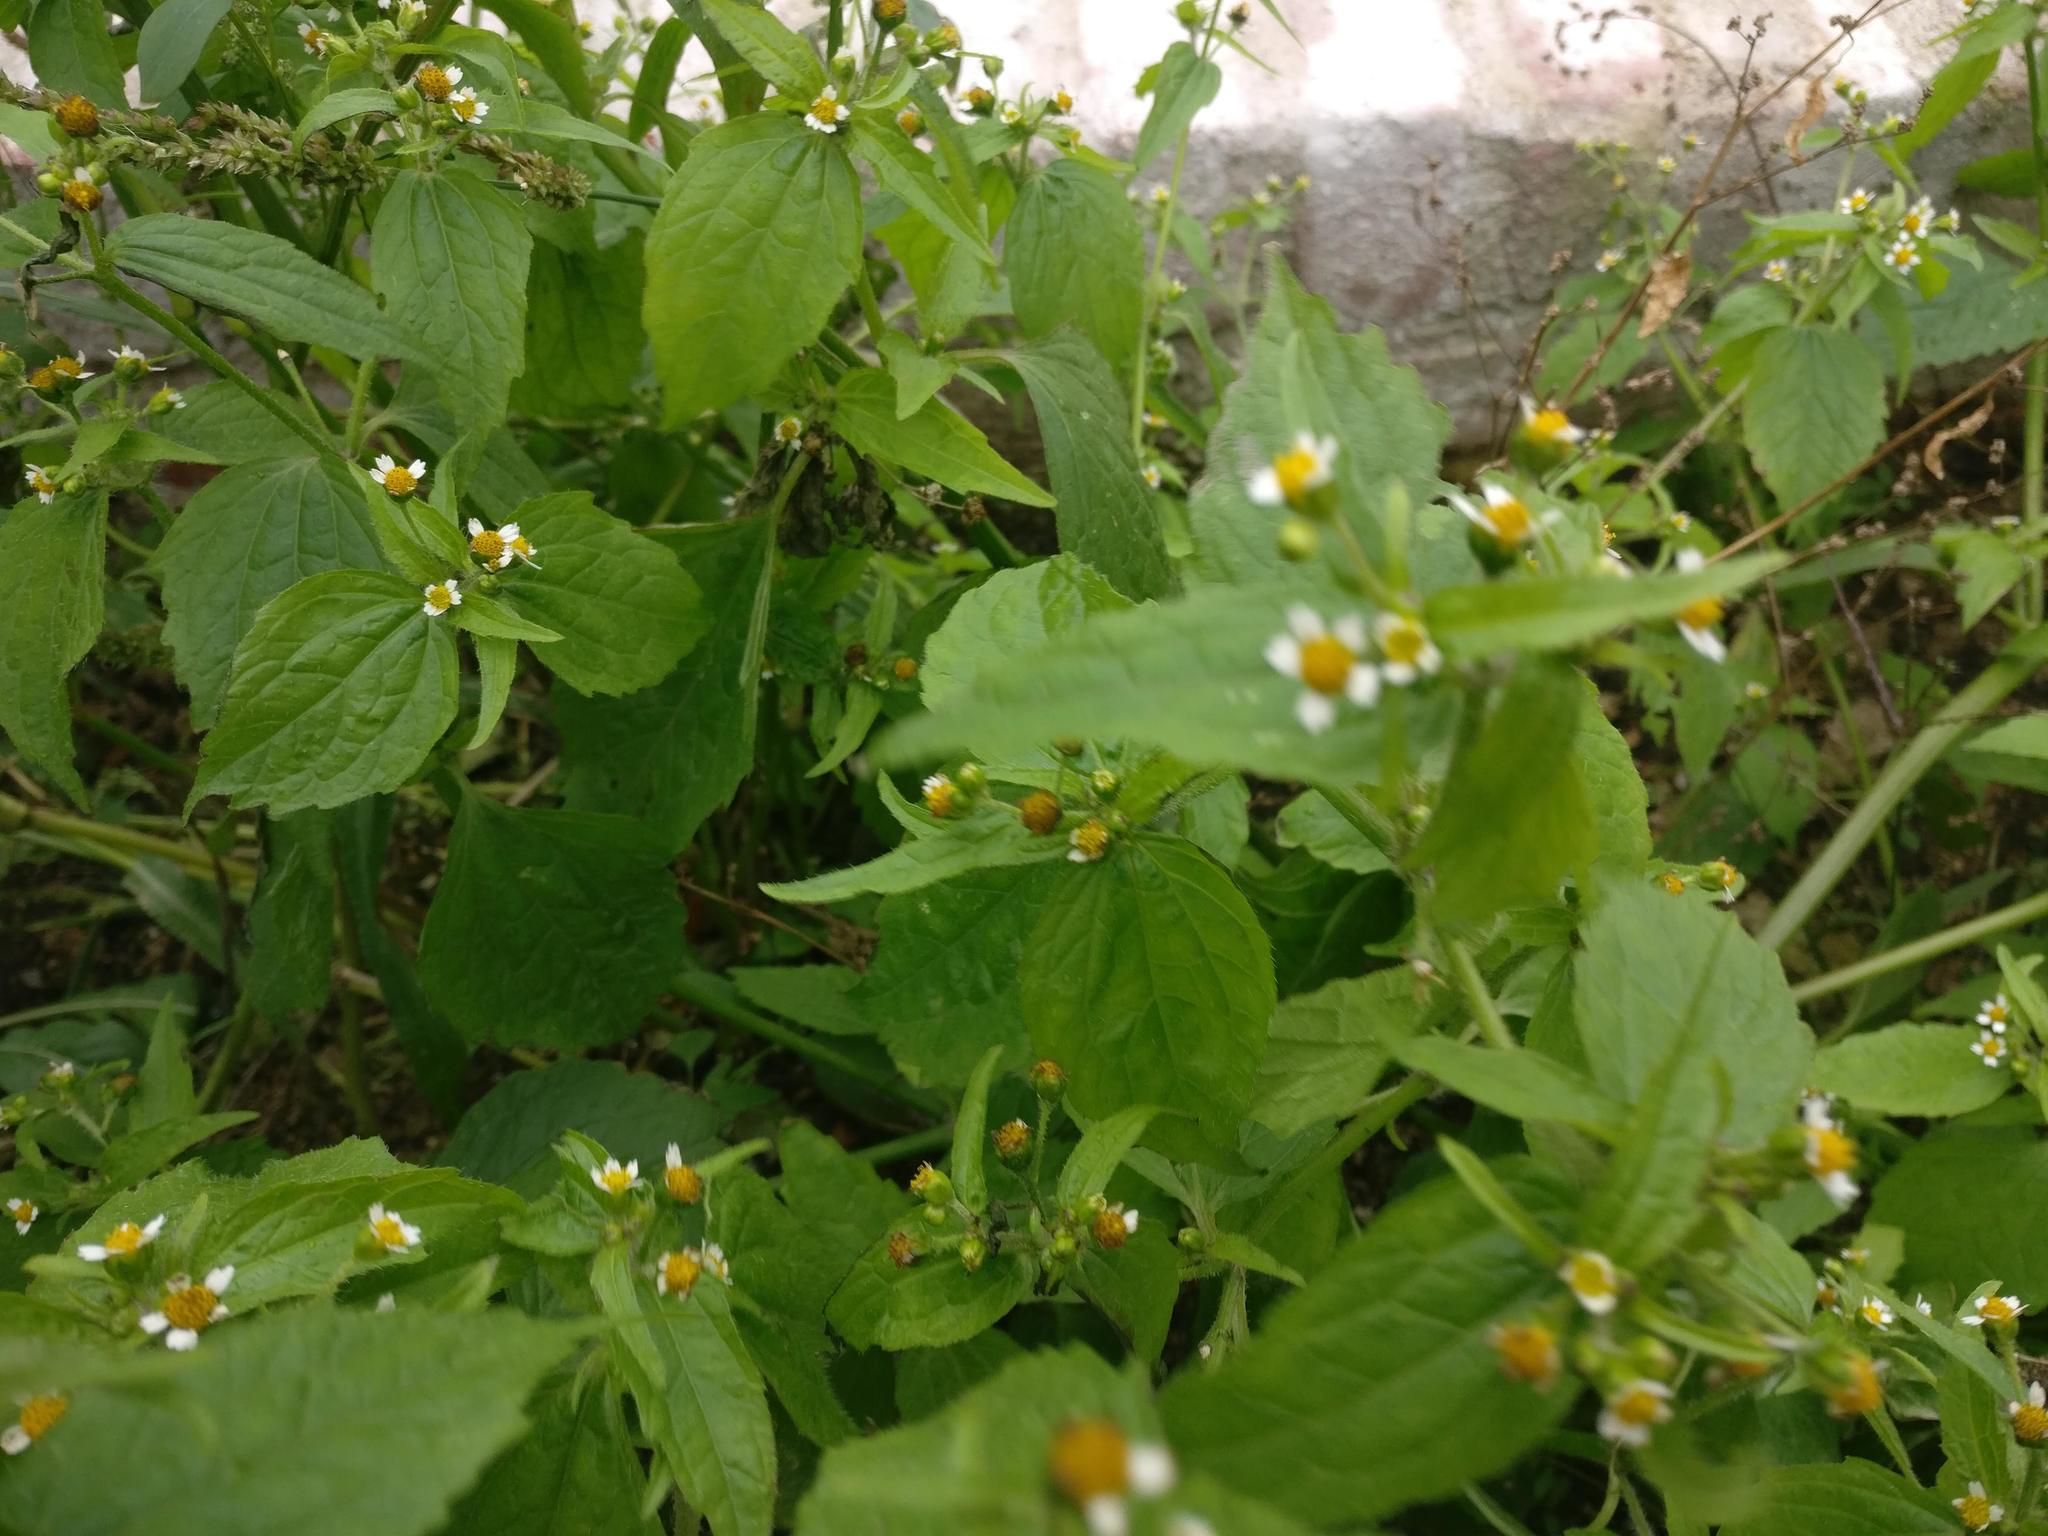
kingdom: Plantae
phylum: Tracheophyta
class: Magnoliopsida
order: Asterales
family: Asteraceae
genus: Galinsoga
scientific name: Galinsoga quadriradiata
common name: Shaggy soldier
